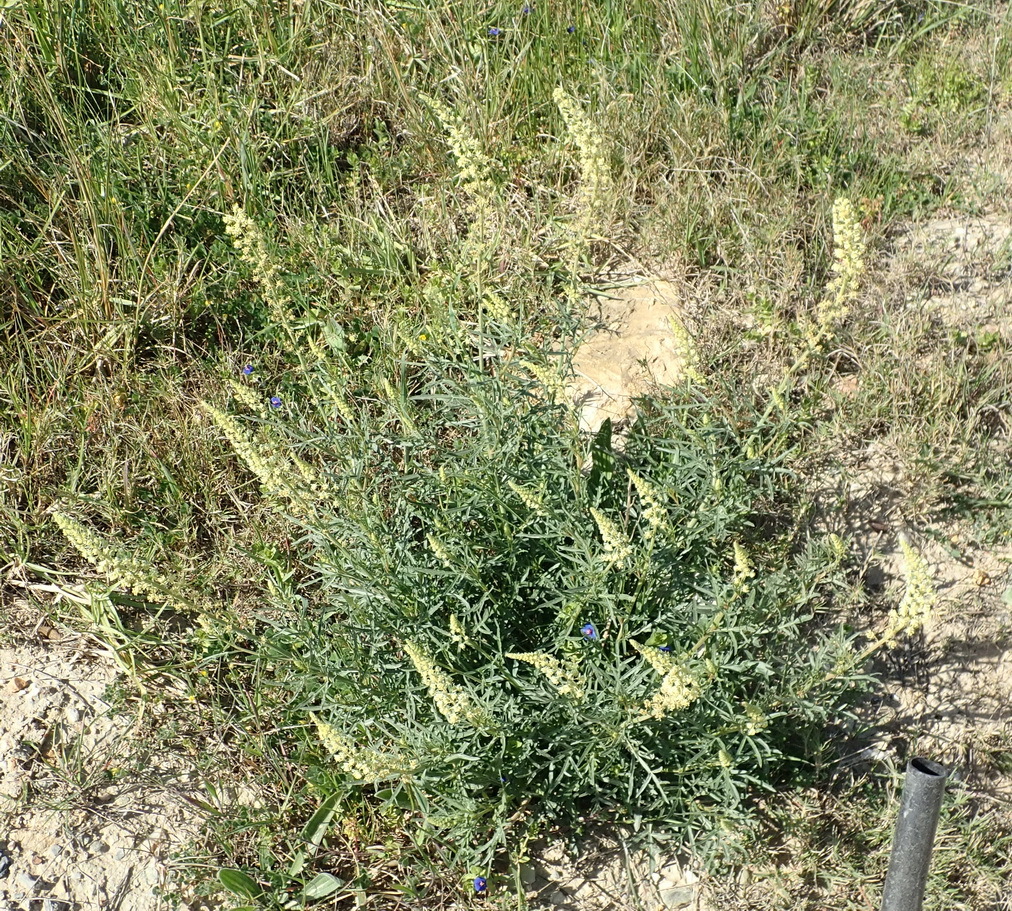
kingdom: Plantae
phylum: Tracheophyta
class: Magnoliopsida
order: Brassicales
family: Resedaceae
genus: Reseda
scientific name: Reseda lutea
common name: Wild mignonette
